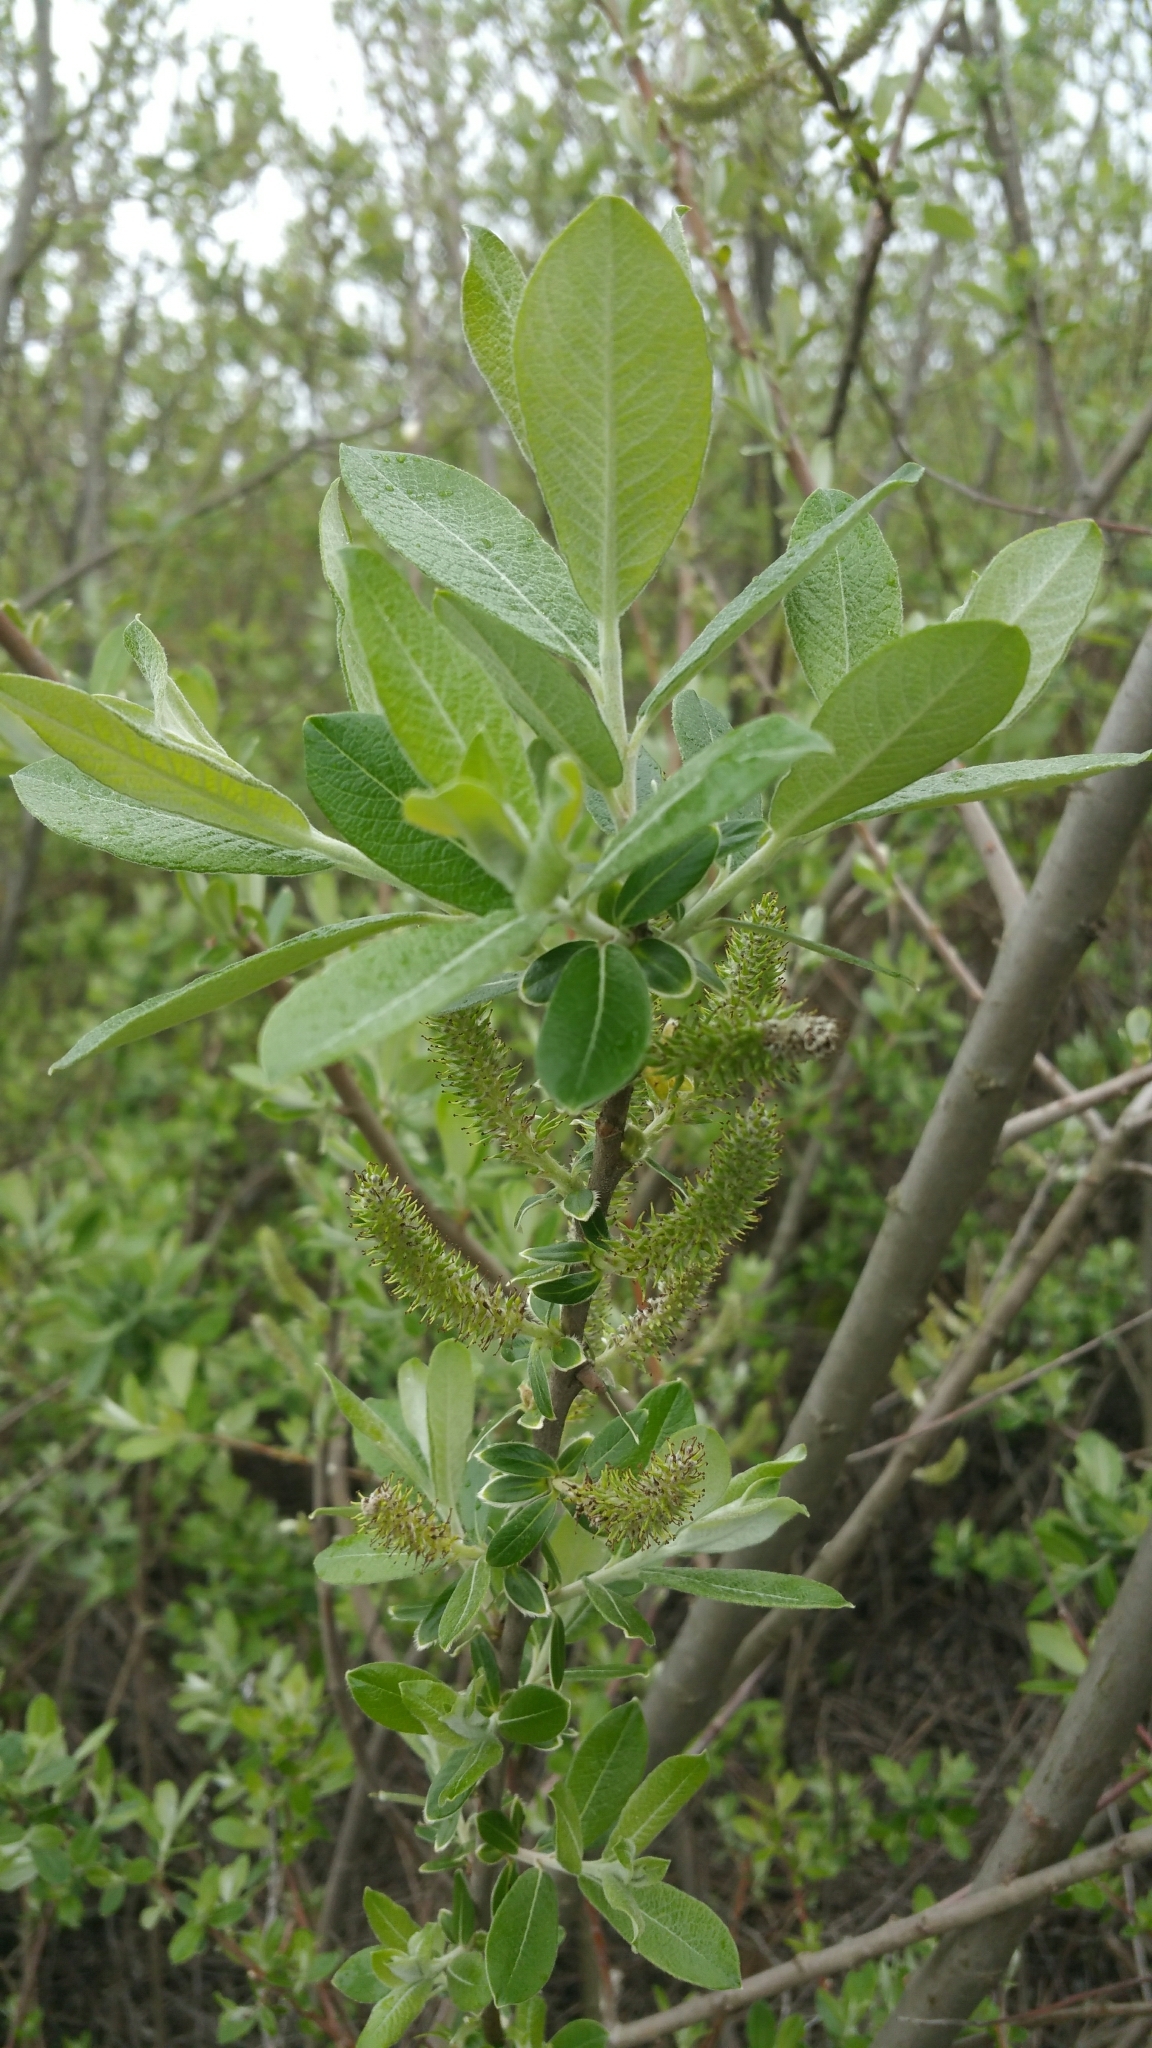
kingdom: Plantae
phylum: Tracheophyta
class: Magnoliopsida
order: Malpighiales
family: Salicaceae
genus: Salix
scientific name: Salix lasiolepis
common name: Arroyo willow
